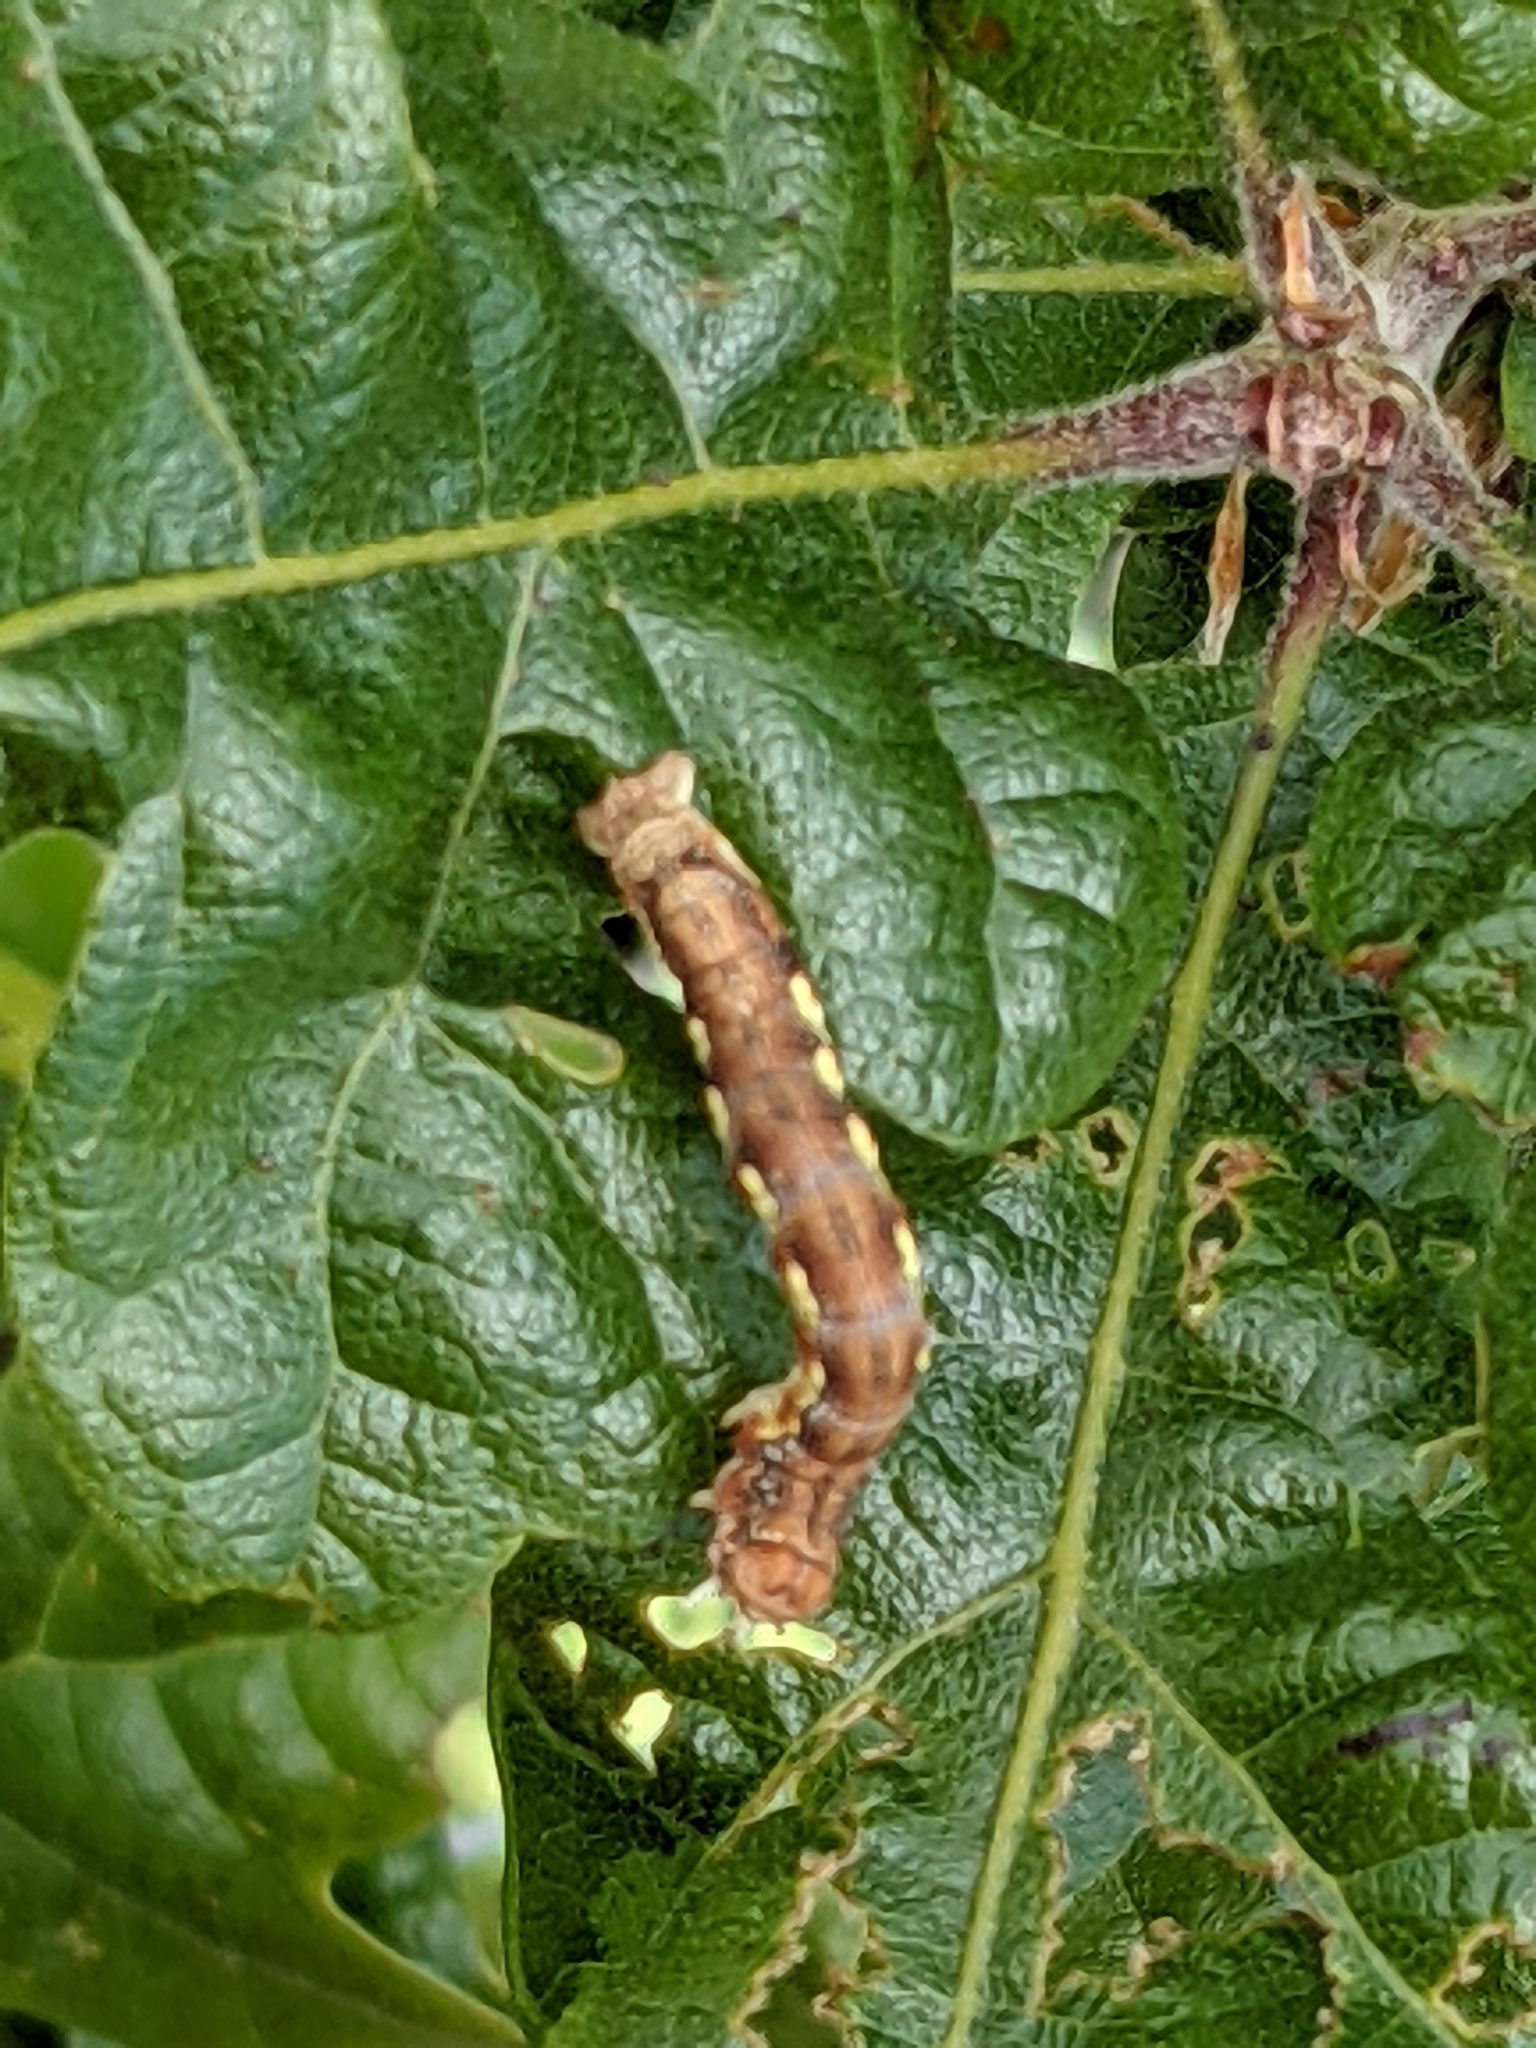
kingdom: Animalia
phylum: Arthropoda
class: Insecta
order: Lepidoptera
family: Geometridae
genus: Erannis
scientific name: Erannis vancouverensis
